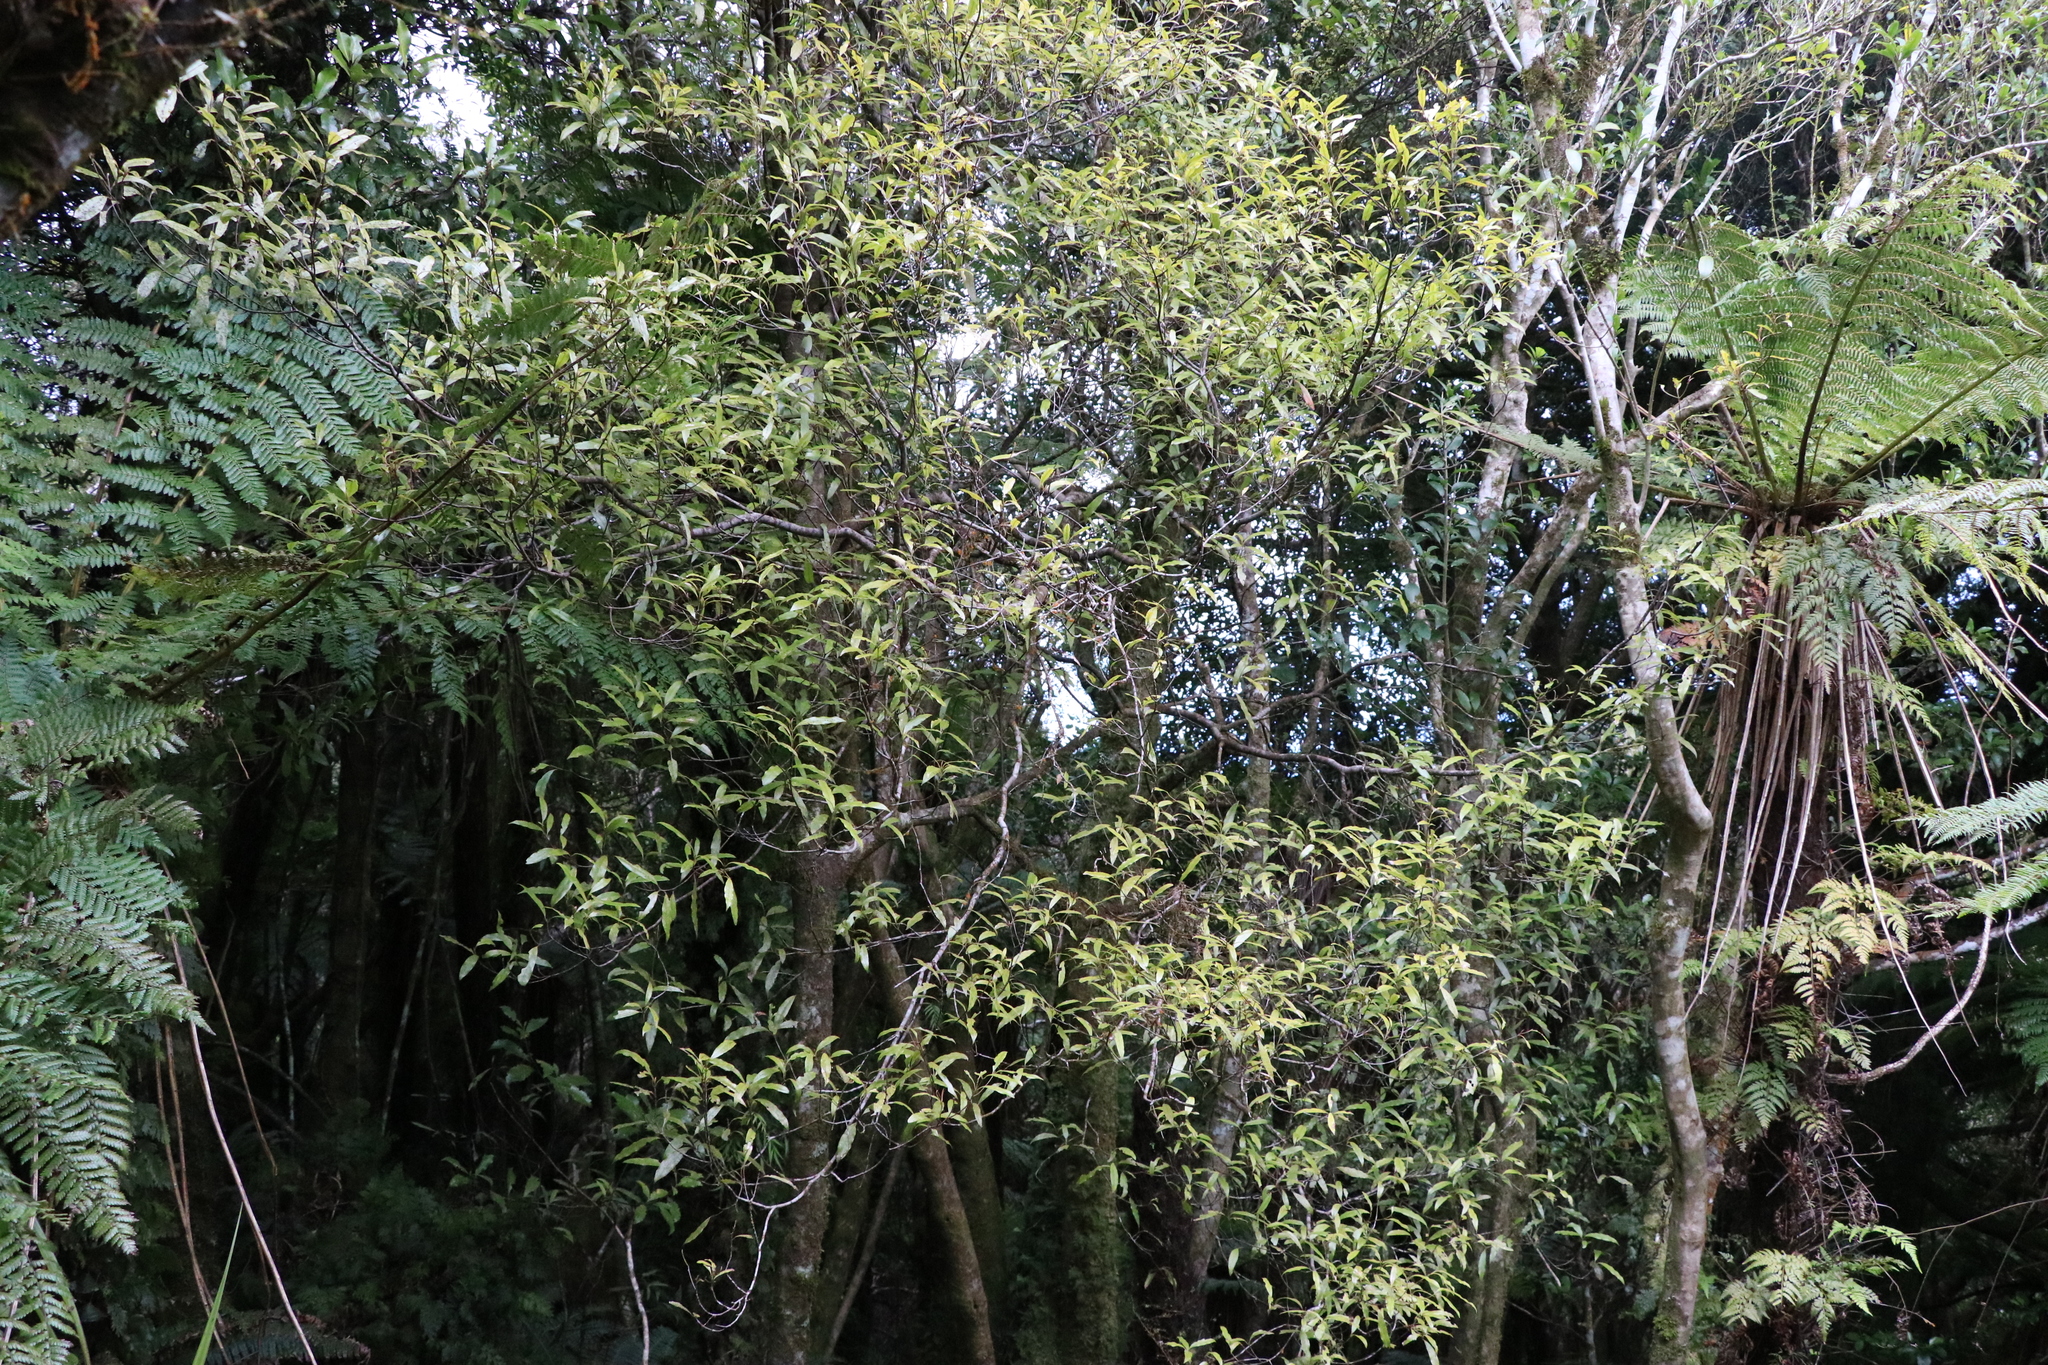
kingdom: Plantae
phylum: Tracheophyta
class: Magnoliopsida
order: Laurales
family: Lauraceae
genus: Beilschmiedia
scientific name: Beilschmiedia tawa
